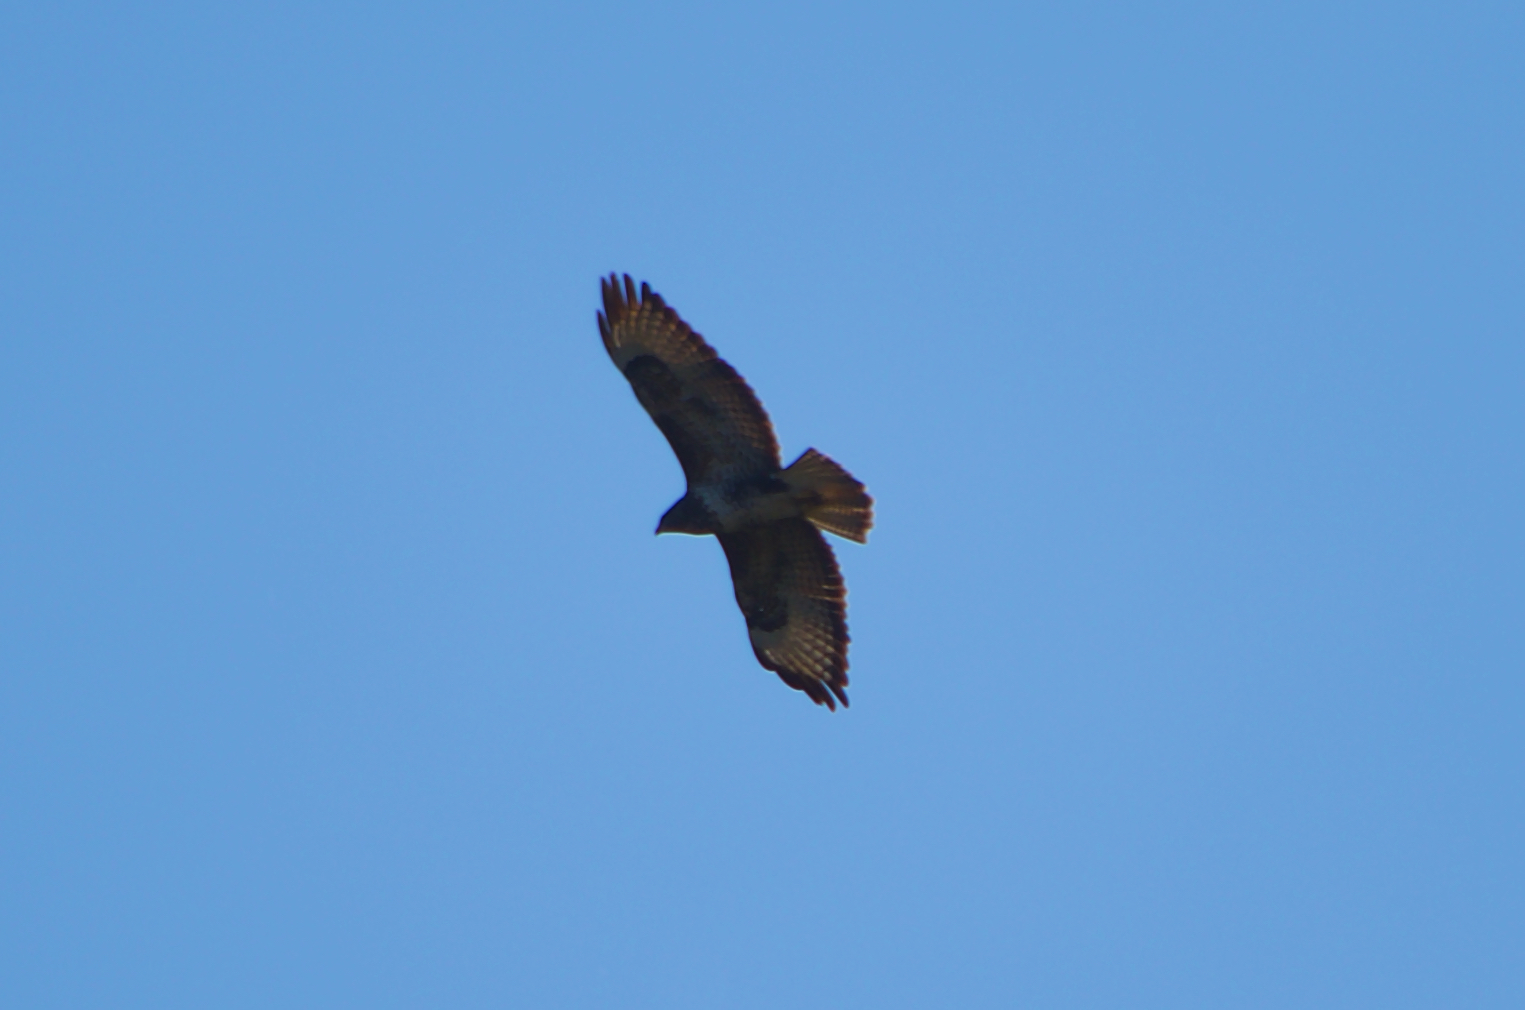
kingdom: Animalia
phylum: Chordata
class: Aves
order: Accipitriformes
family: Accipitridae
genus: Buteo
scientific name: Buteo buteo
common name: Common buzzard
